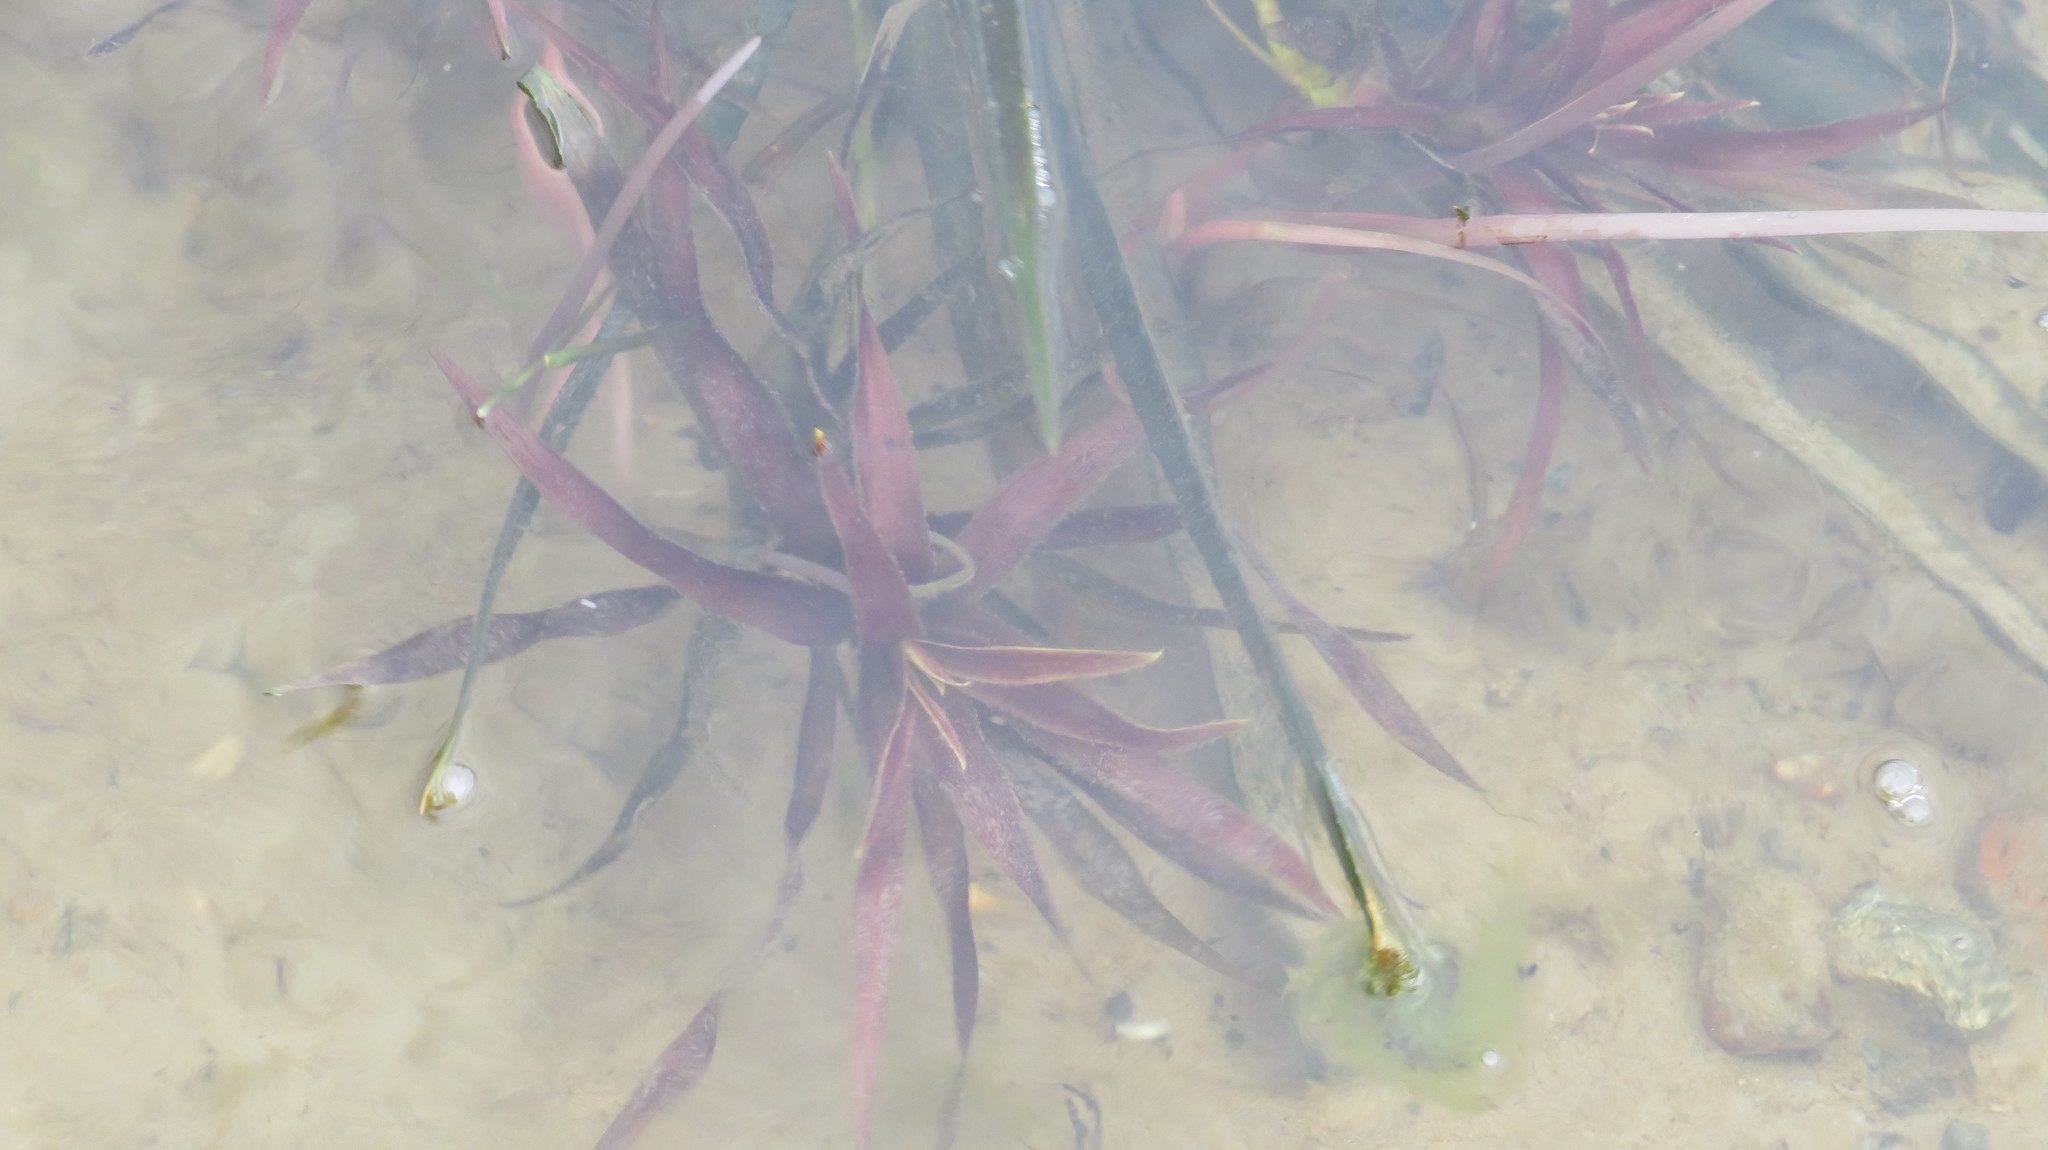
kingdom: Plantae
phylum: Tracheophyta
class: Liliopsida
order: Alismatales
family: Hydrocharitaceae
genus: Stratiotes
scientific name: Stratiotes aloides
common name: Water-soldier
